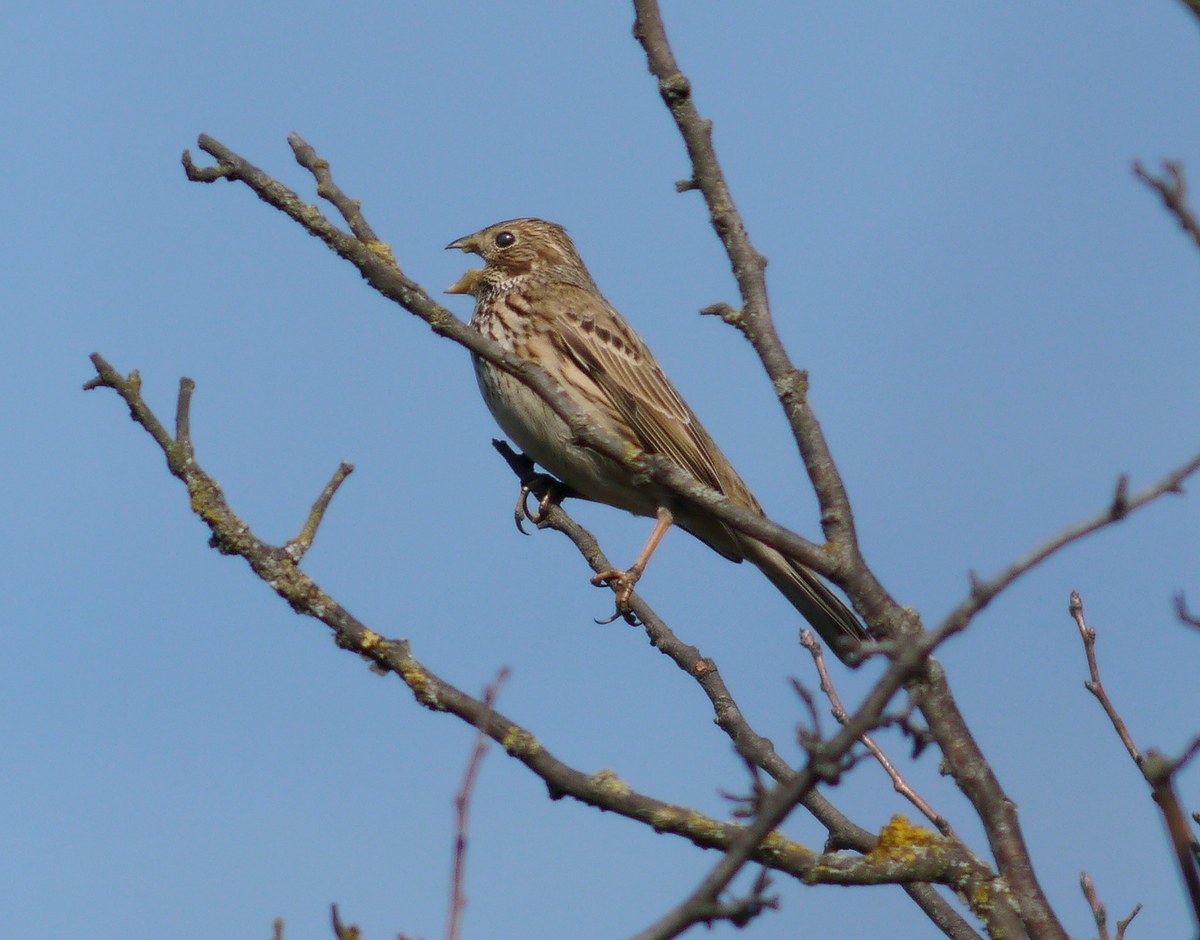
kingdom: Animalia
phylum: Chordata
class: Aves
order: Passeriformes
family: Emberizidae
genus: Emberiza
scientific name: Emberiza calandra
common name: Corn bunting
